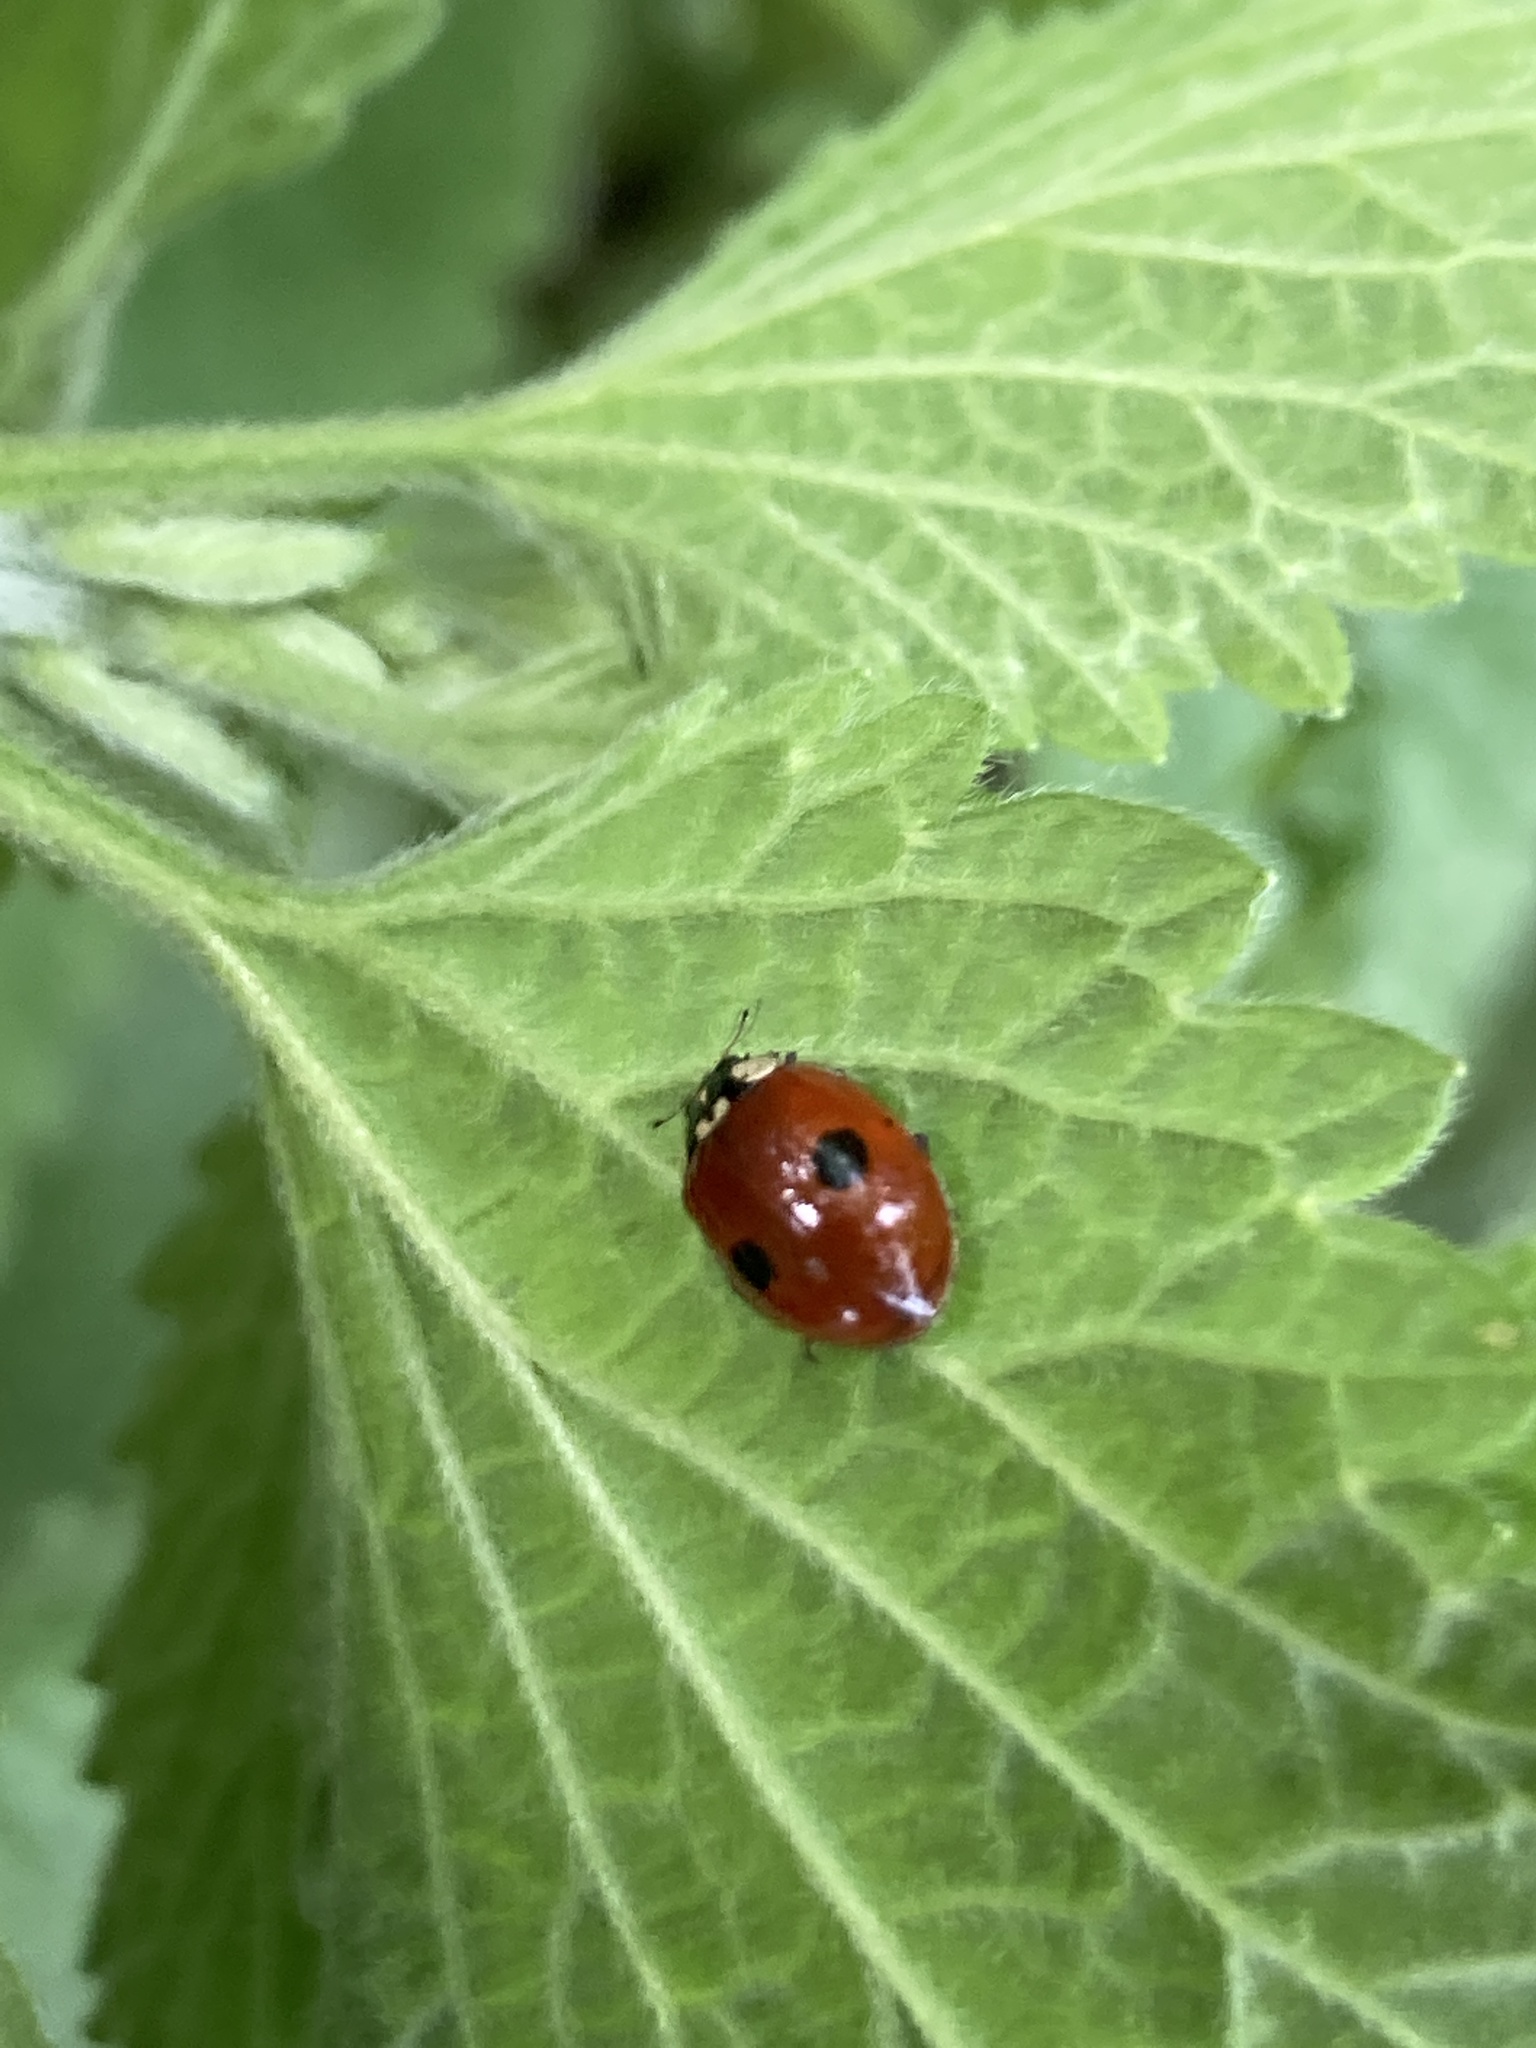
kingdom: Animalia
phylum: Arthropoda
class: Insecta
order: Coleoptera
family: Coccinellidae
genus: Adalia
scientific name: Adalia bipunctata
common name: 2-spot ladybird
